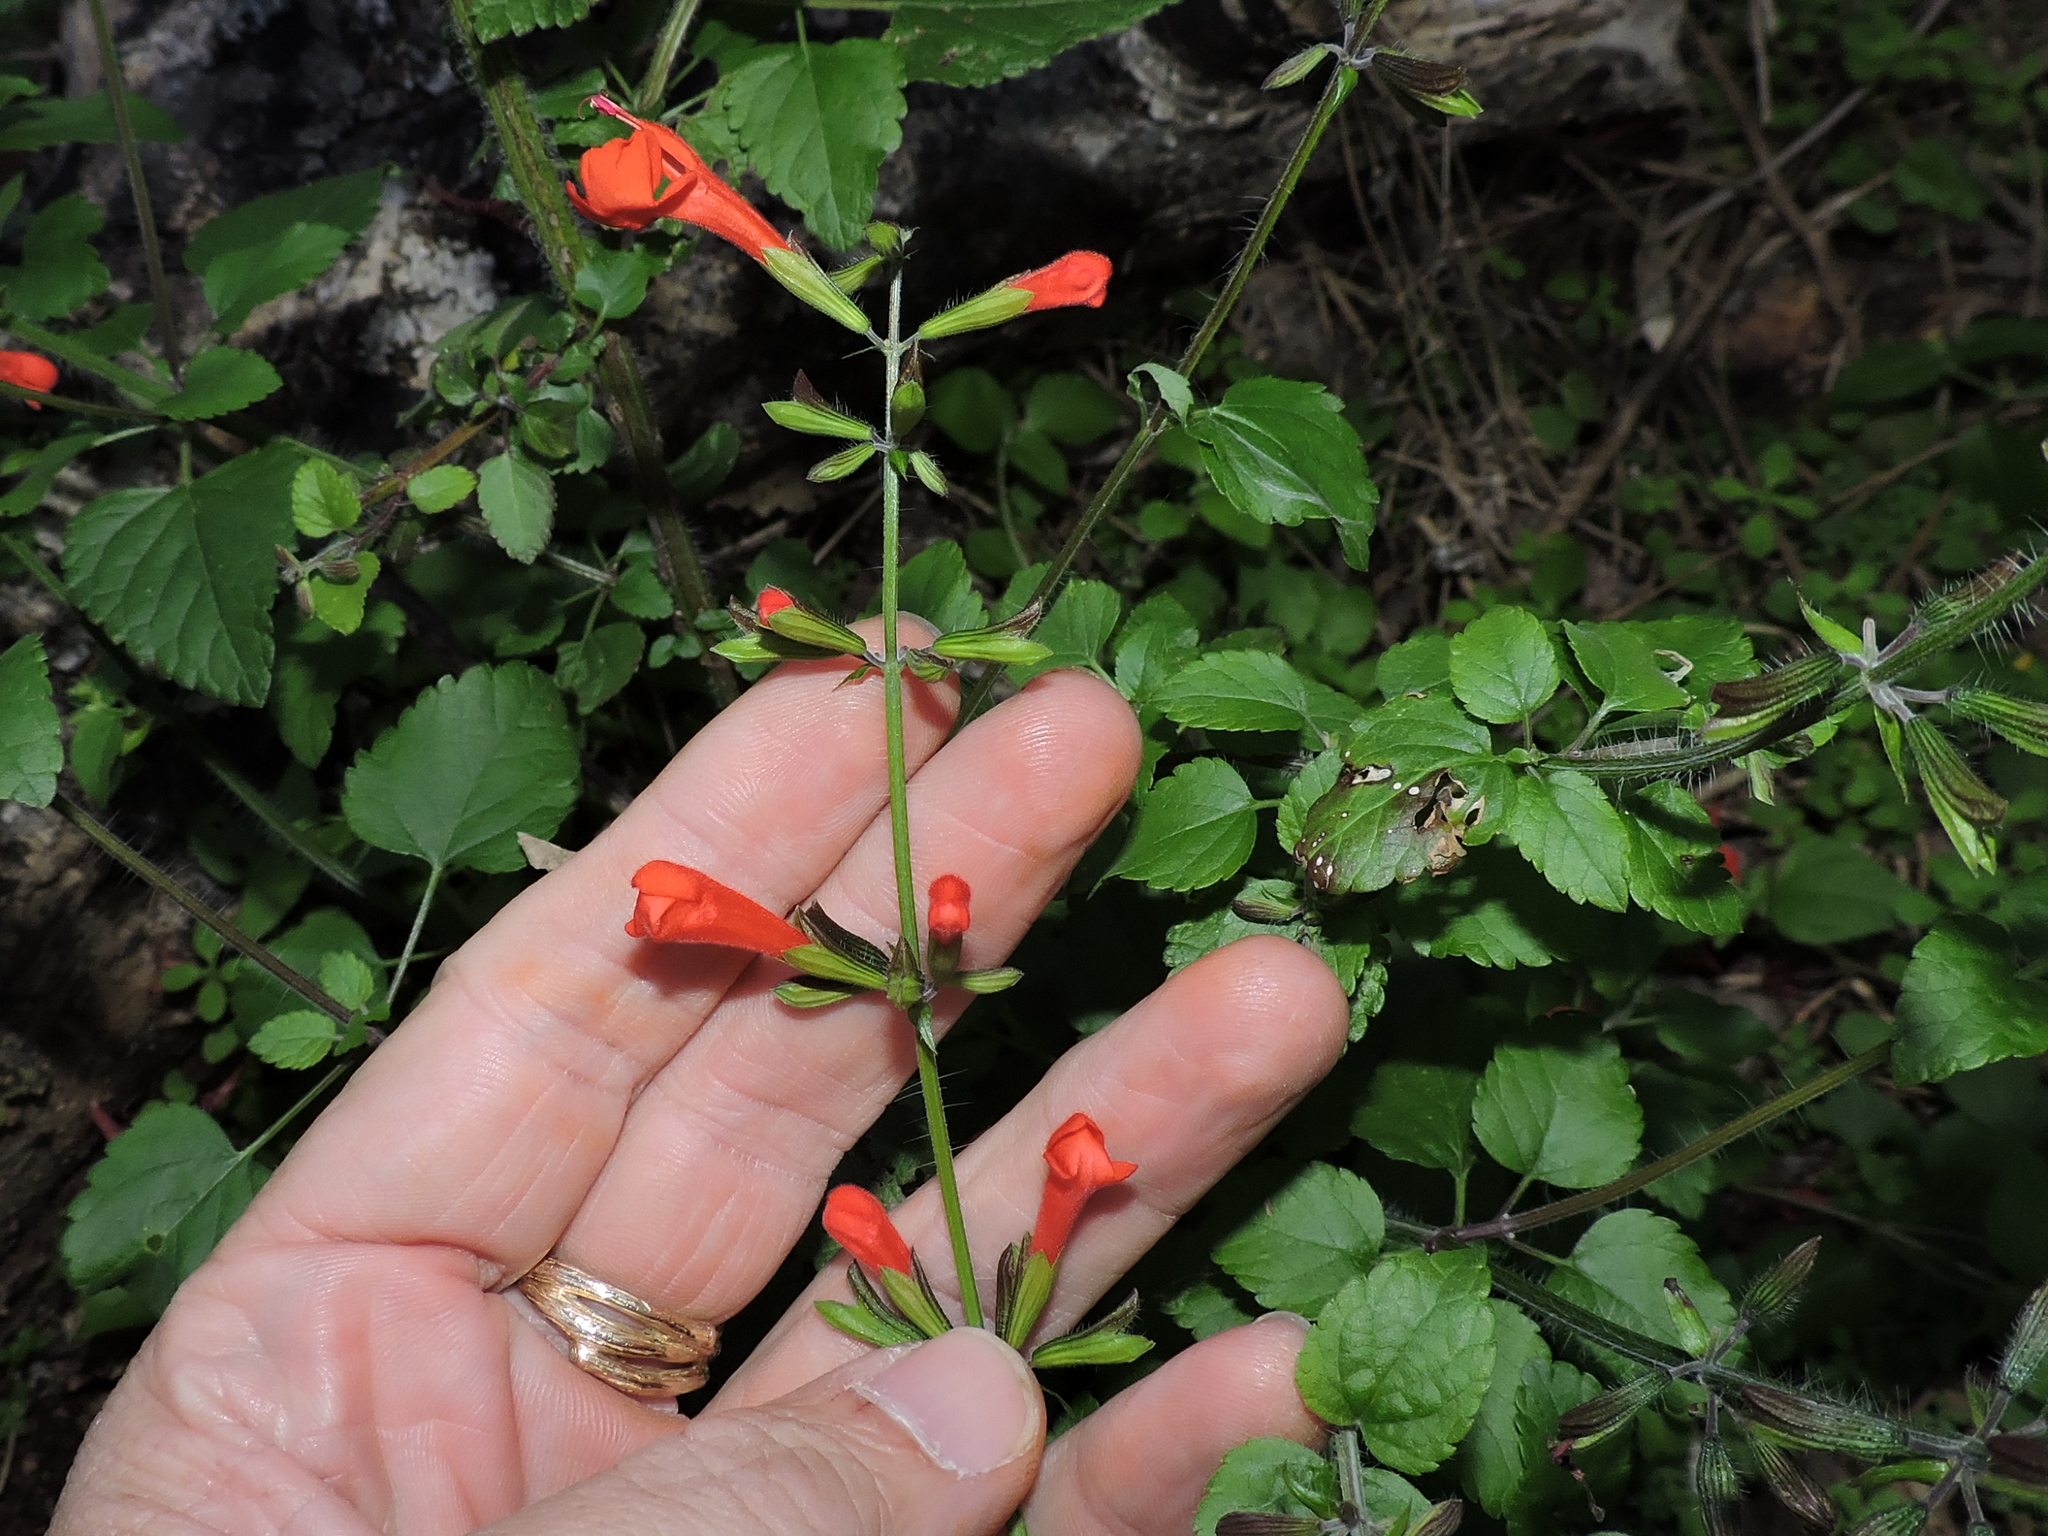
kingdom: Plantae
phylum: Tracheophyta
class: Magnoliopsida
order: Lamiales
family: Lamiaceae
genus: Salvia
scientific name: Salvia coccinea
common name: Blood sage
